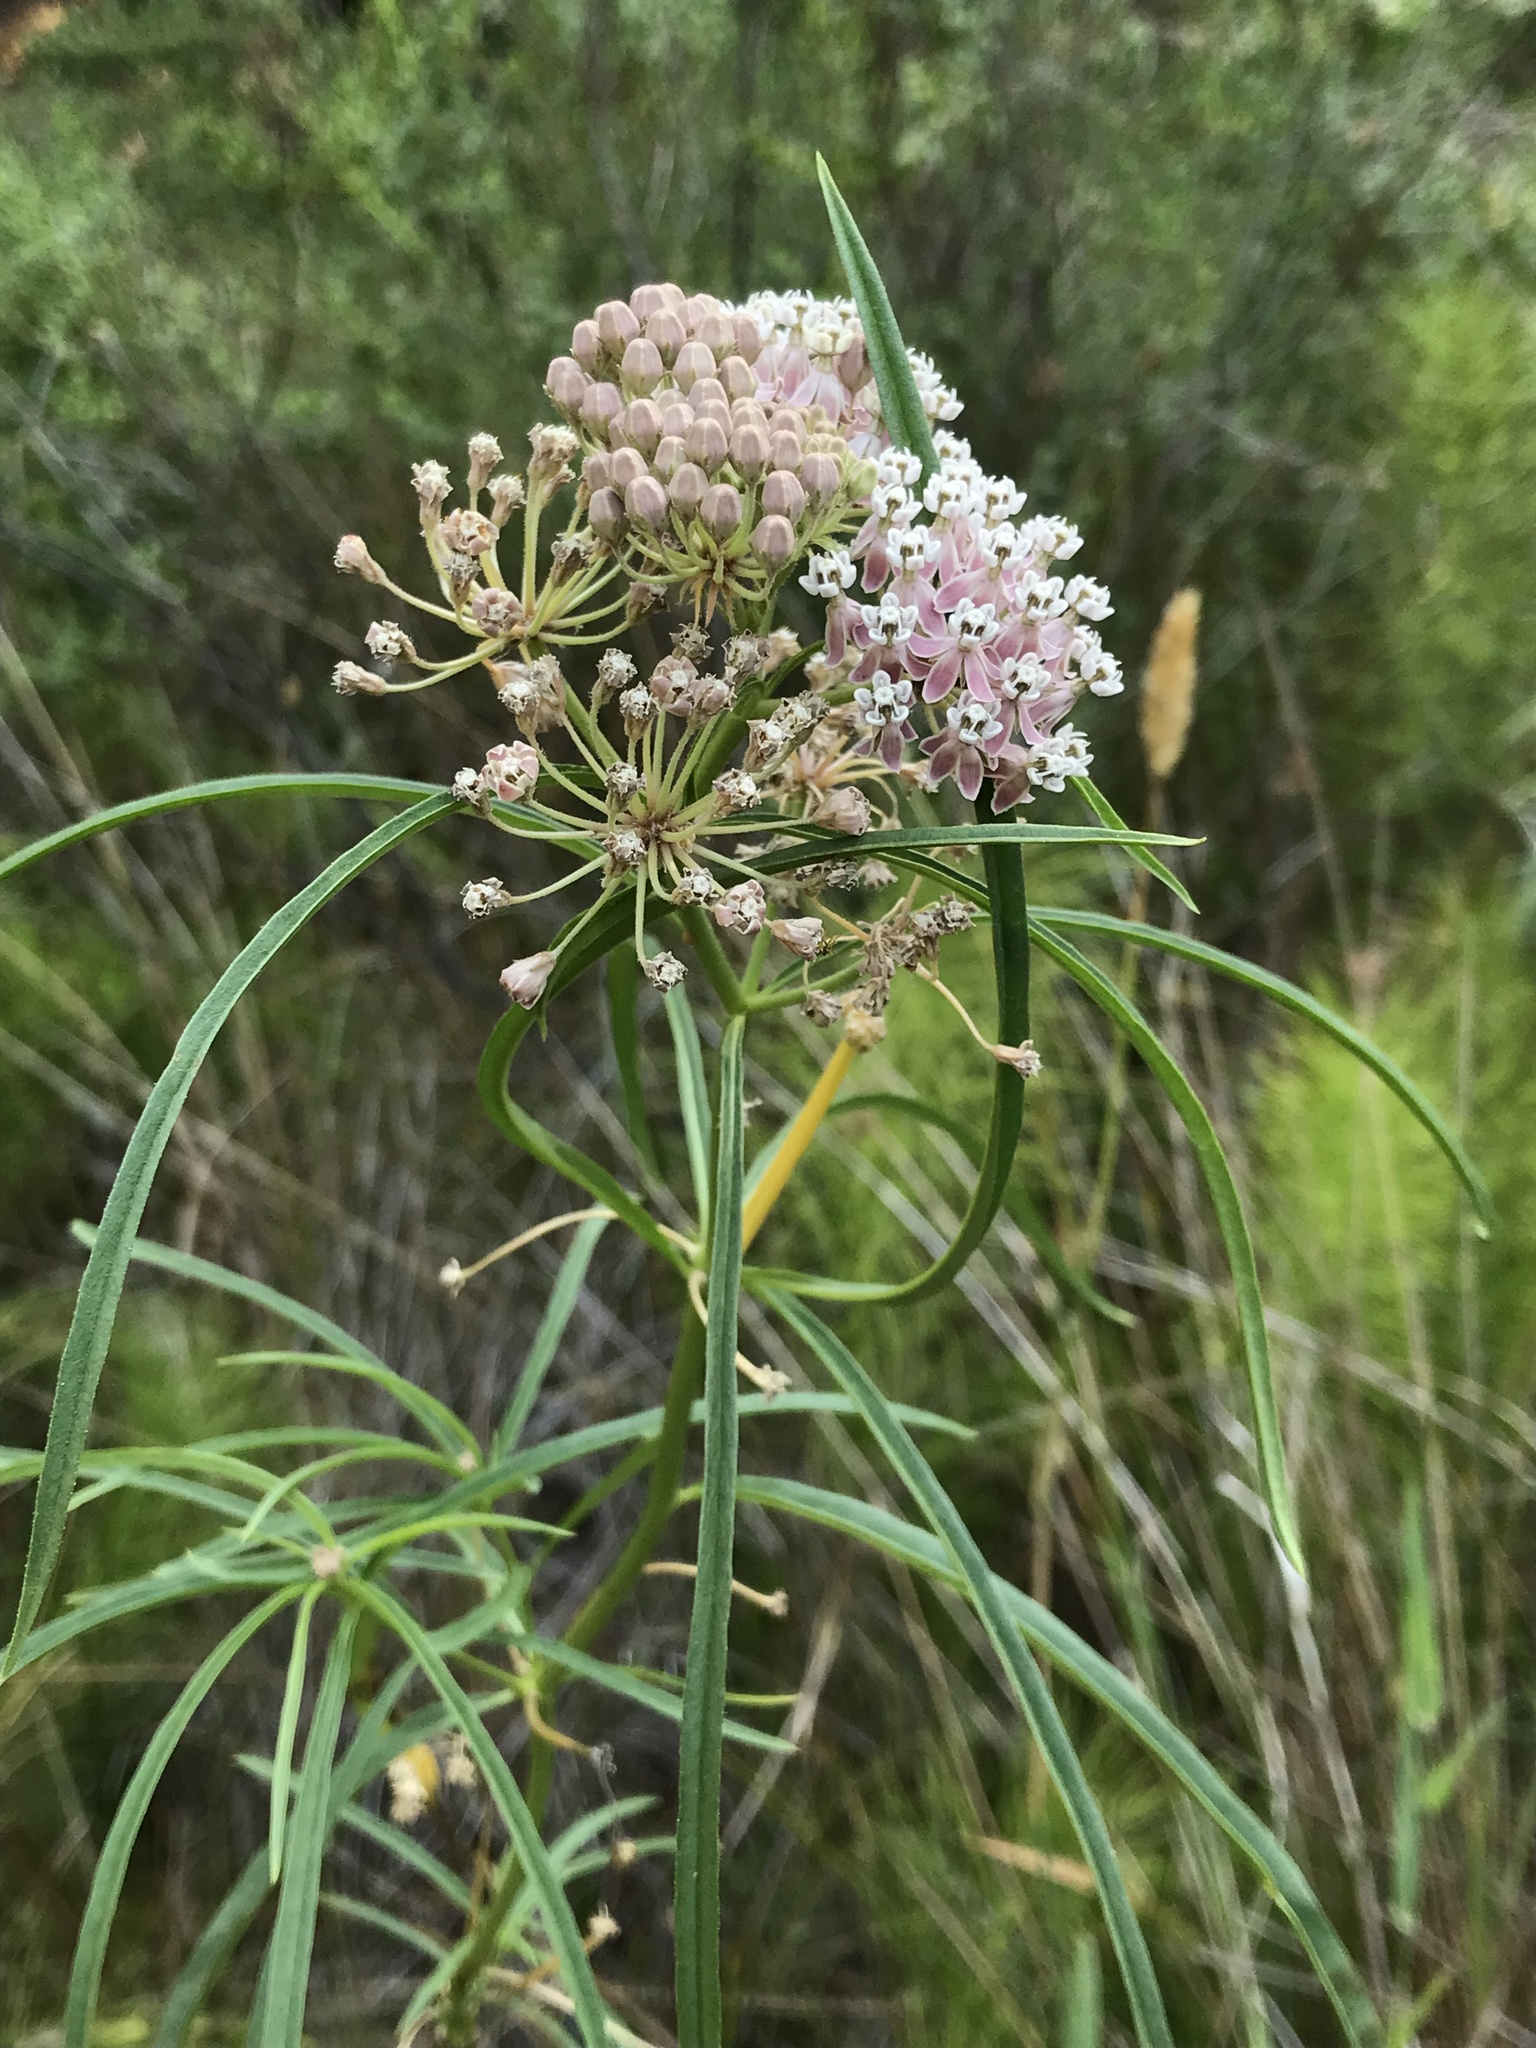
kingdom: Plantae
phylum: Tracheophyta
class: Magnoliopsida
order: Gentianales
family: Apocynaceae
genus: Asclepias
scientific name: Asclepias fascicularis
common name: Mexican milkweed
